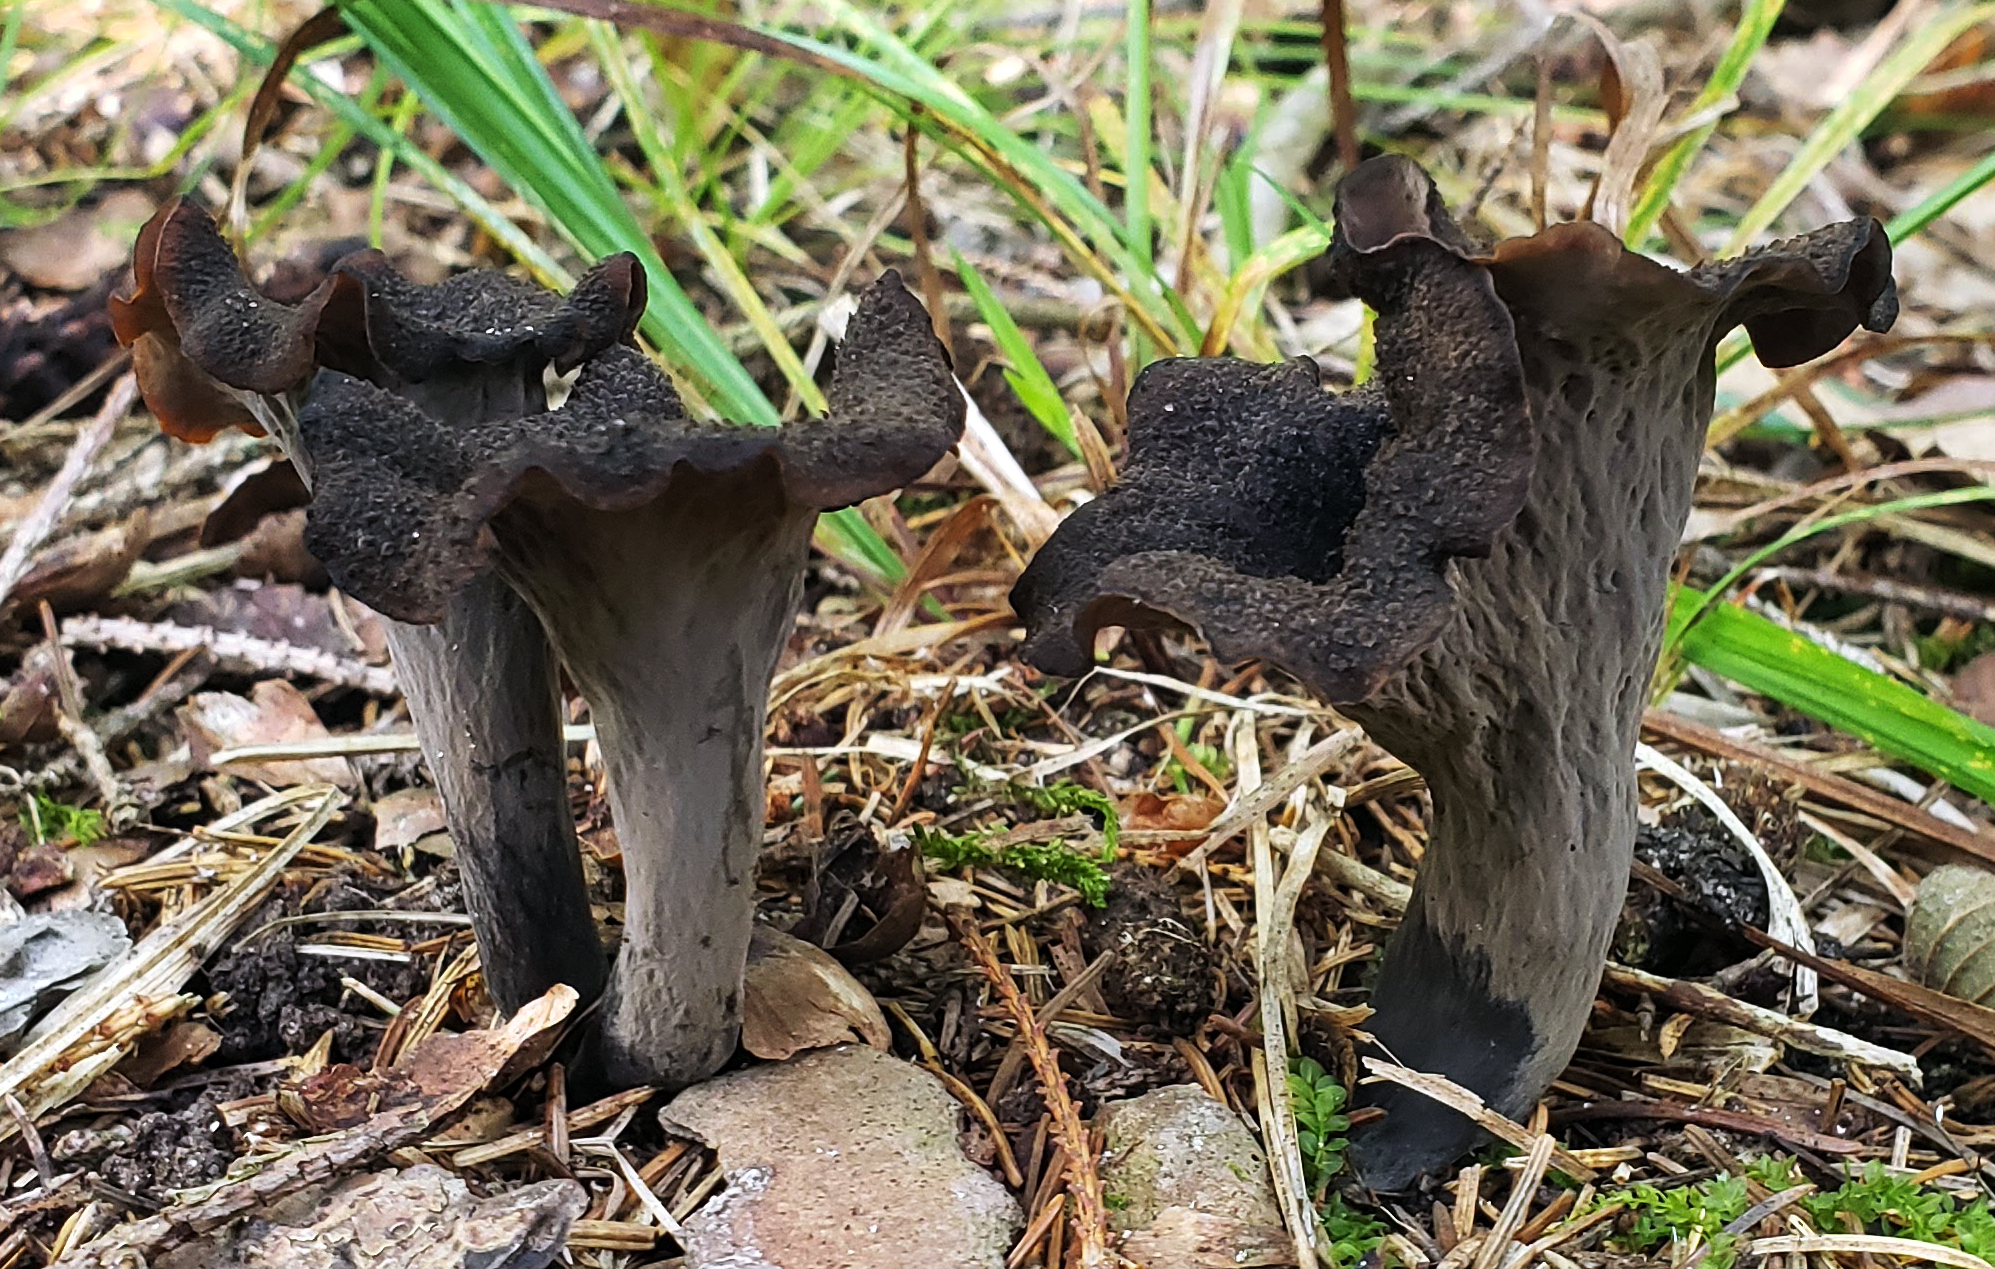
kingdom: Fungi
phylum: Basidiomycota
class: Agaricomycetes
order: Cantharellales
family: Hydnaceae
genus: Craterellus
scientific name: Craterellus cornucopioides
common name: Horn of plenty
